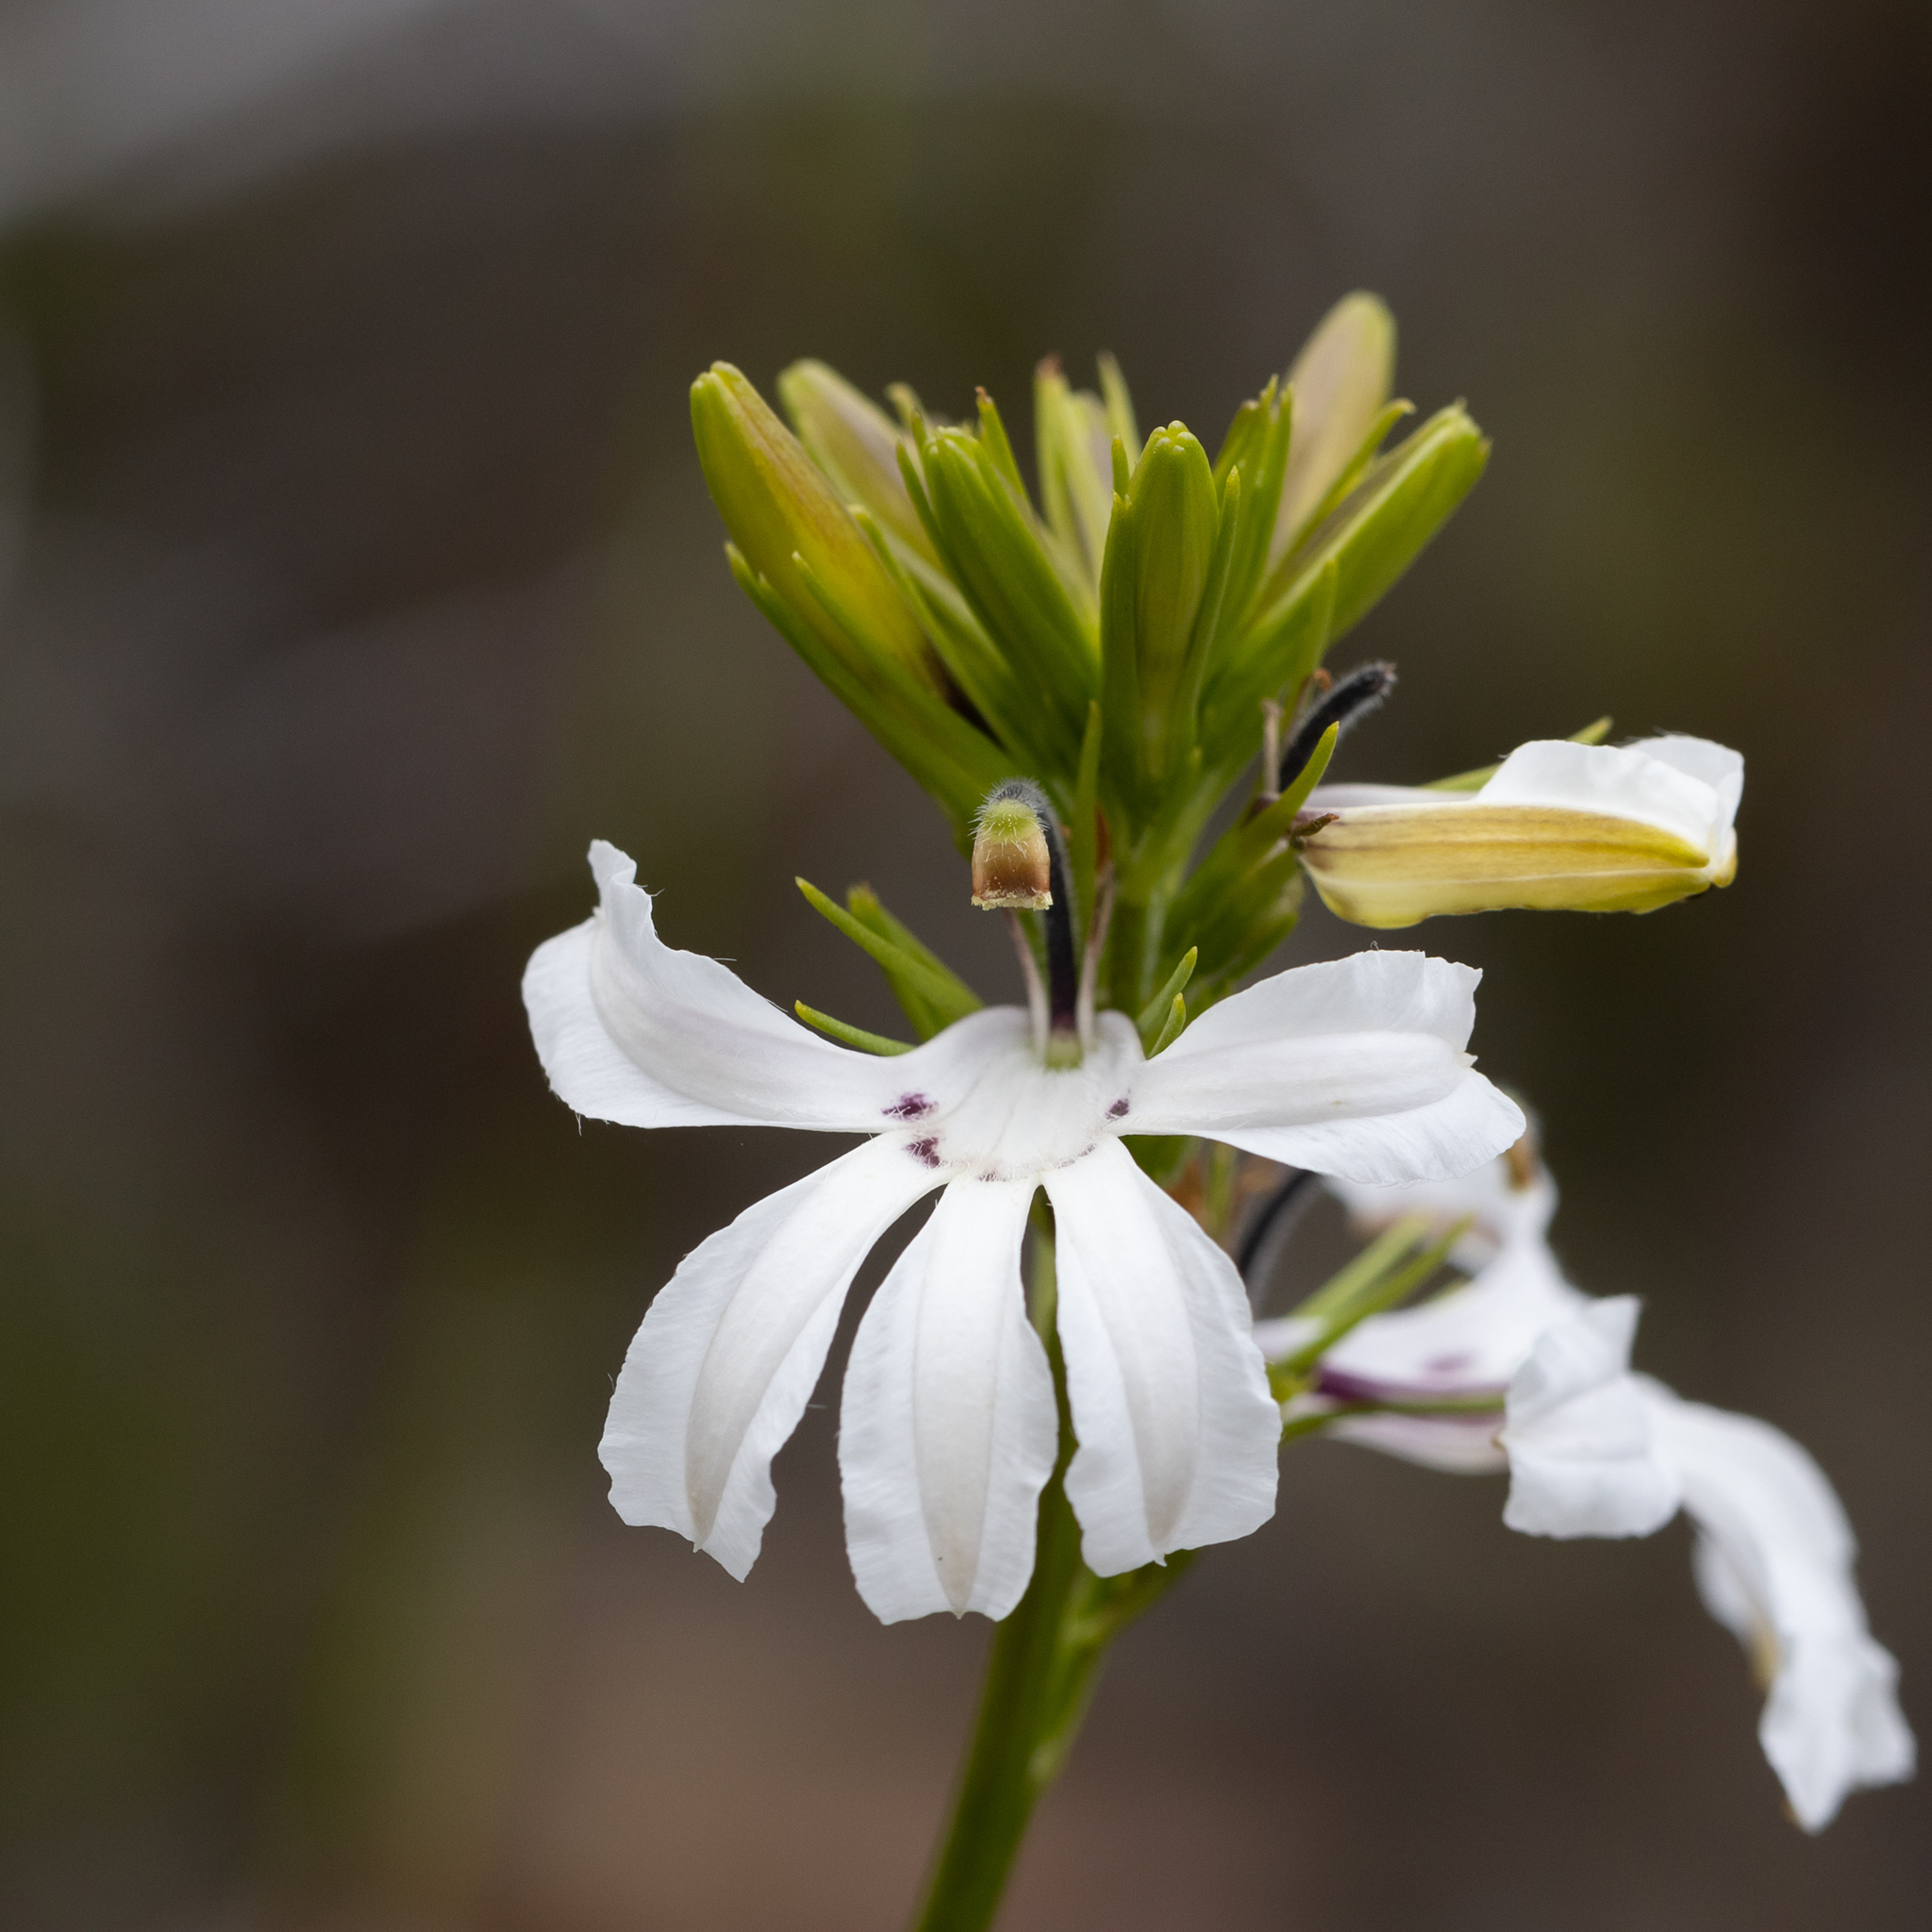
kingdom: Plantae
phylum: Tracheophyta
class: Magnoliopsida
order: Asterales
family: Goodeniaceae
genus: Goodenia
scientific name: Goodenia scapigera
